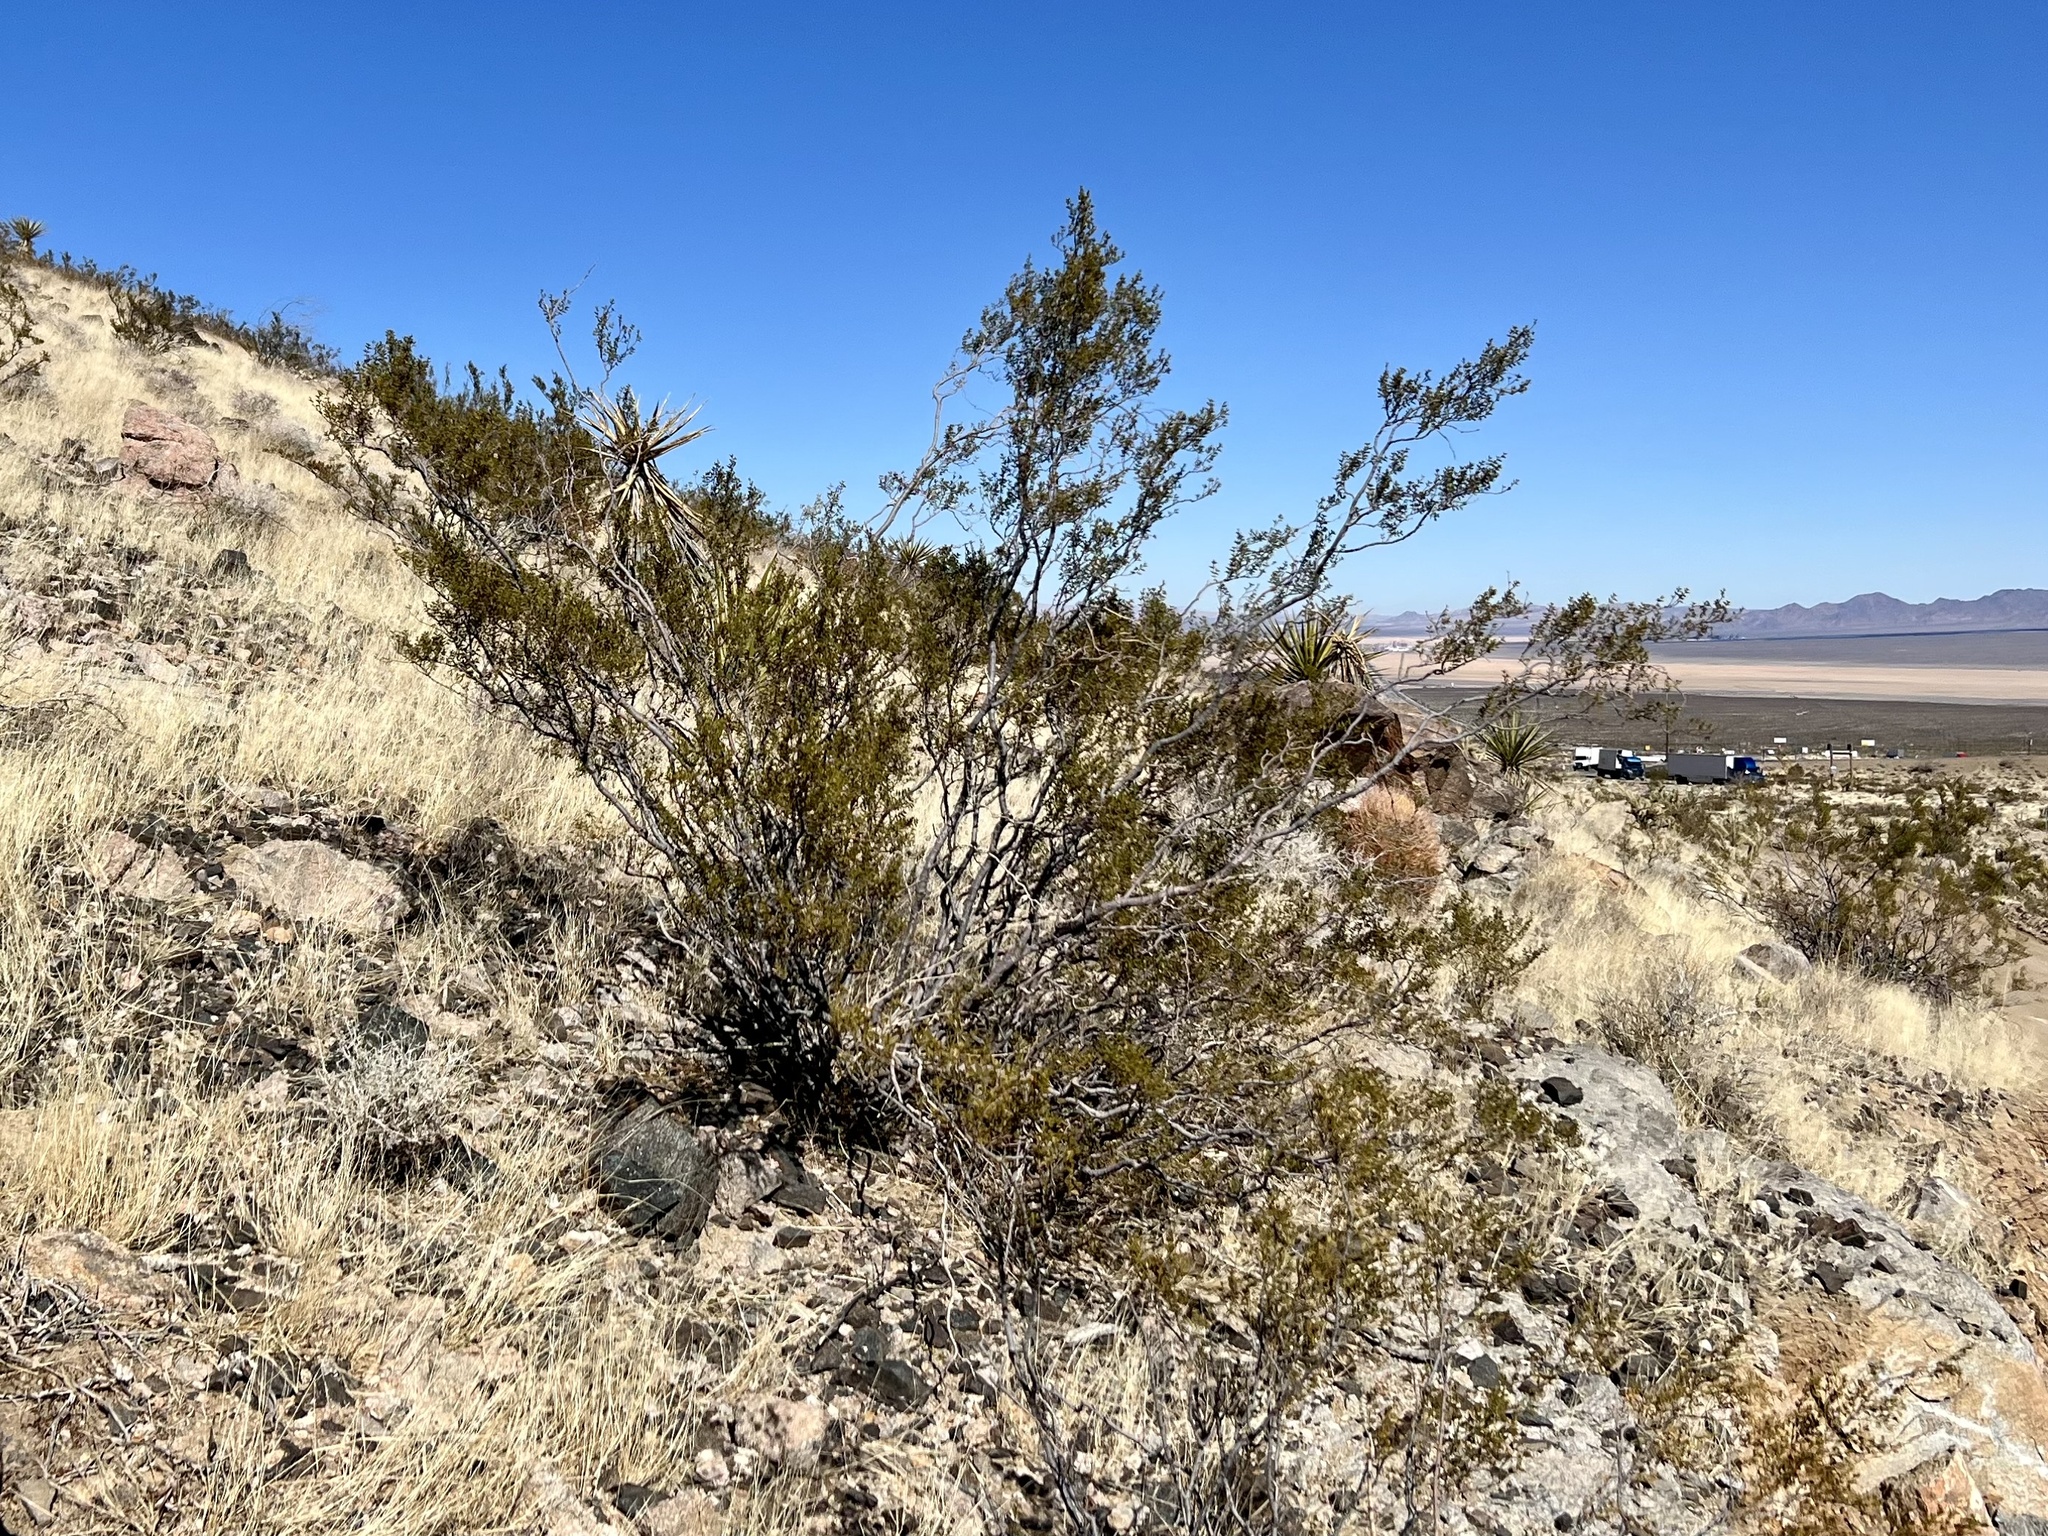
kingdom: Plantae
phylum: Tracheophyta
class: Magnoliopsida
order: Zygophyllales
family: Zygophyllaceae
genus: Larrea
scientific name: Larrea tridentata
